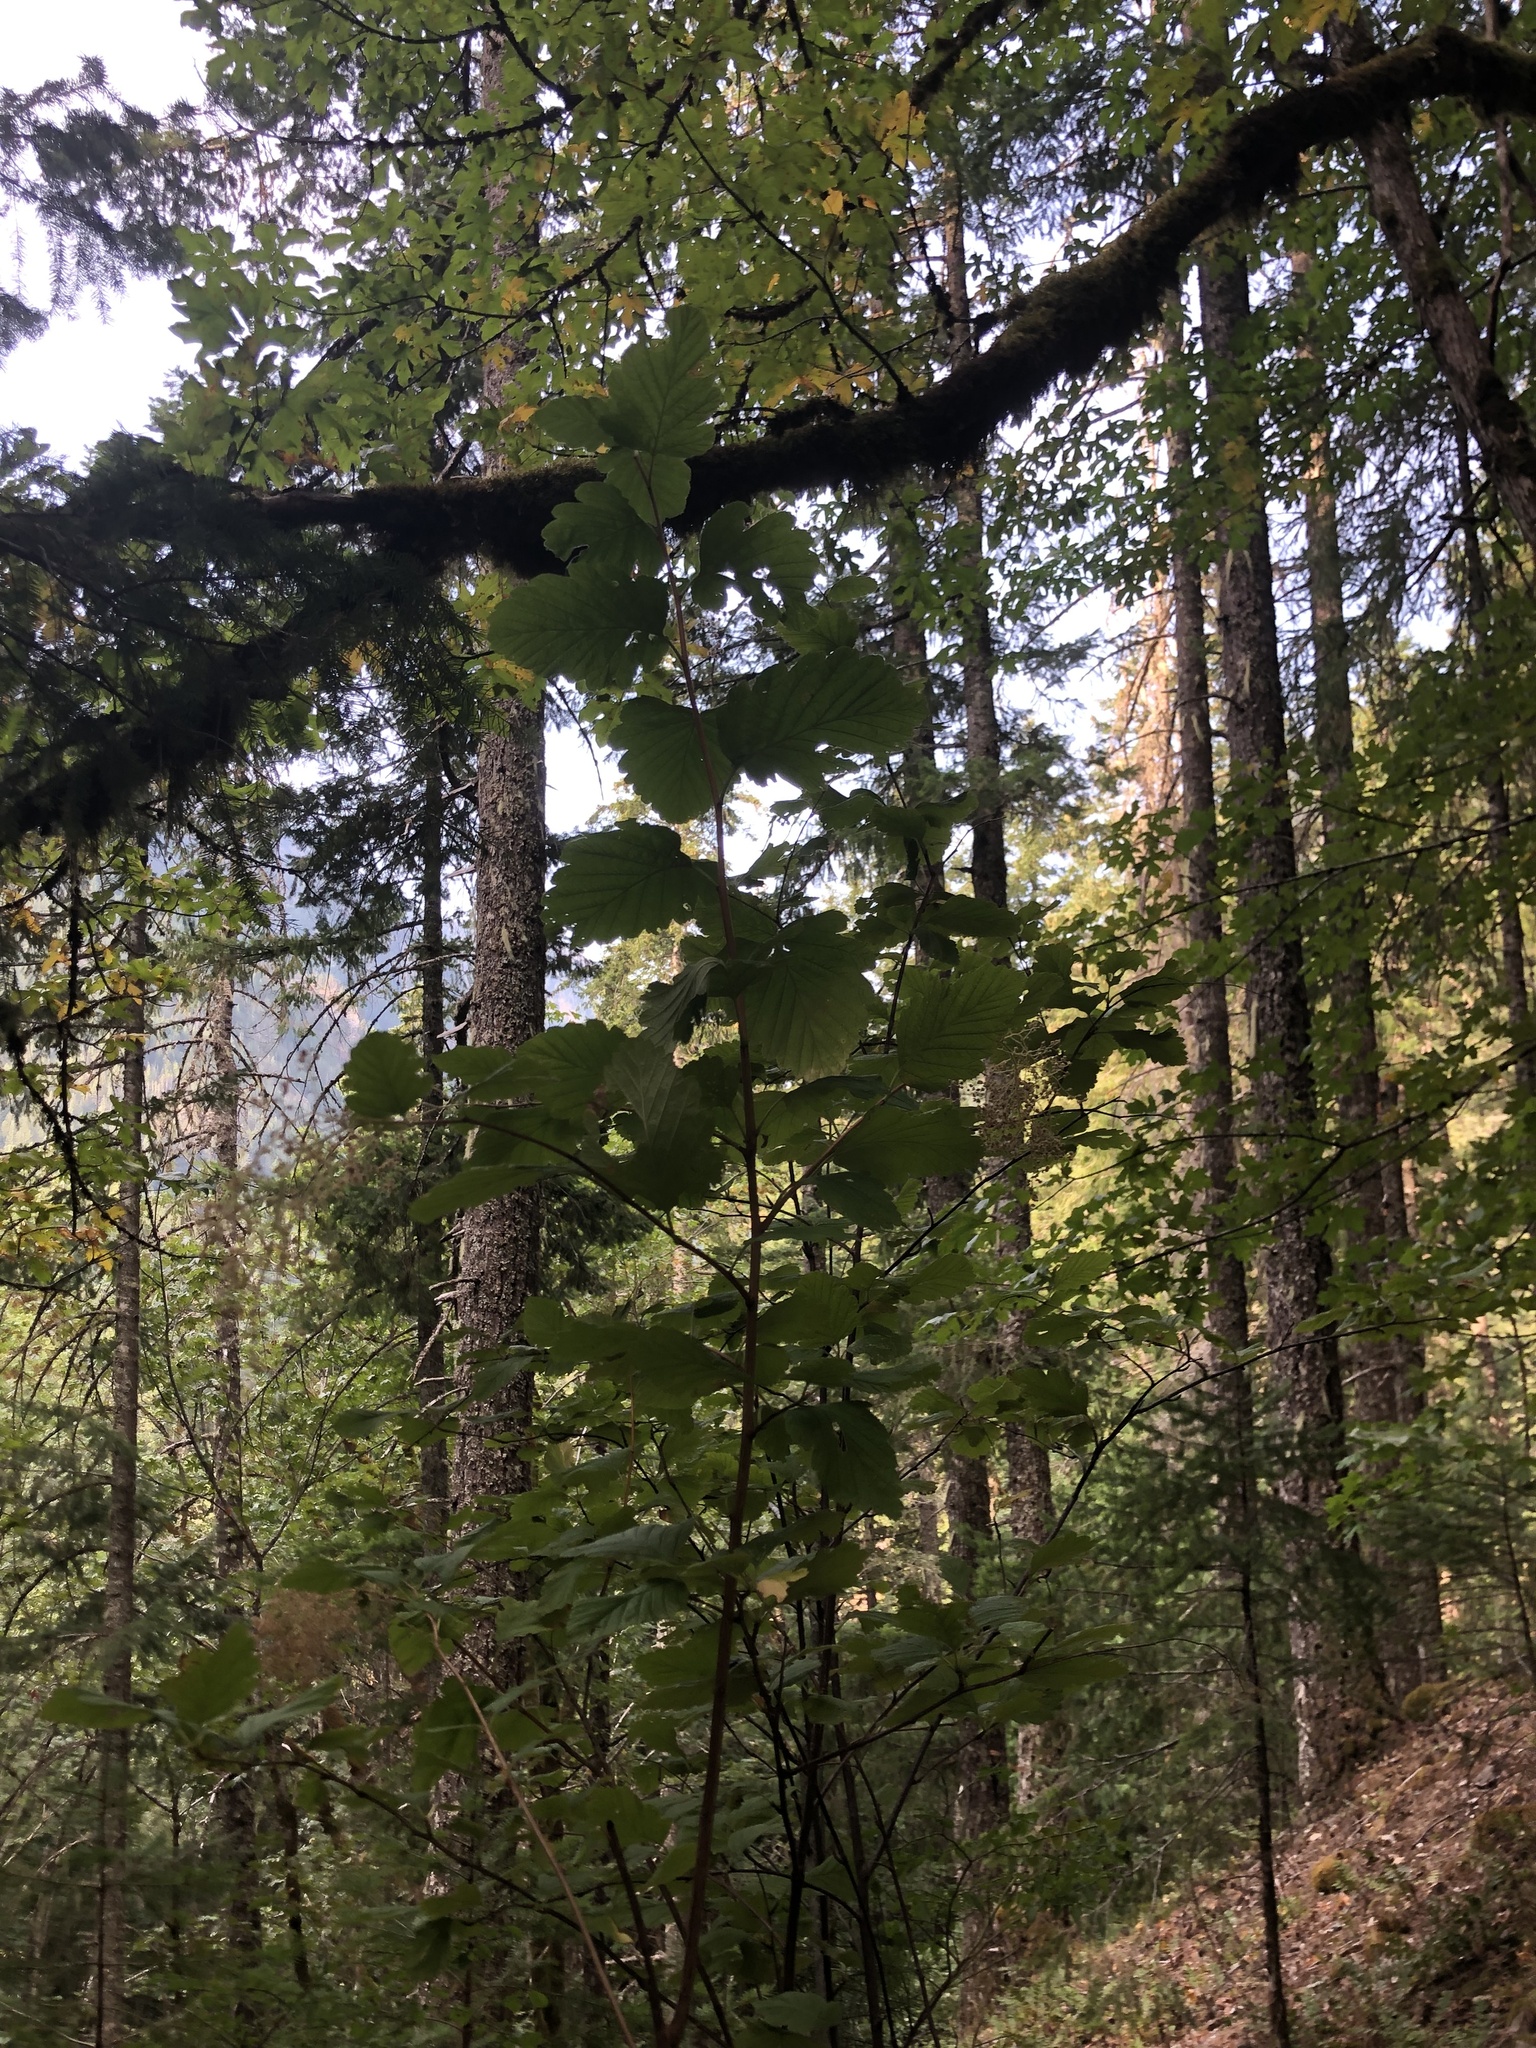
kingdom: Plantae
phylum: Tracheophyta
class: Magnoliopsida
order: Rosales
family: Rosaceae
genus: Holodiscus
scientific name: Holodiscus discolor
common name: Oceanspray
